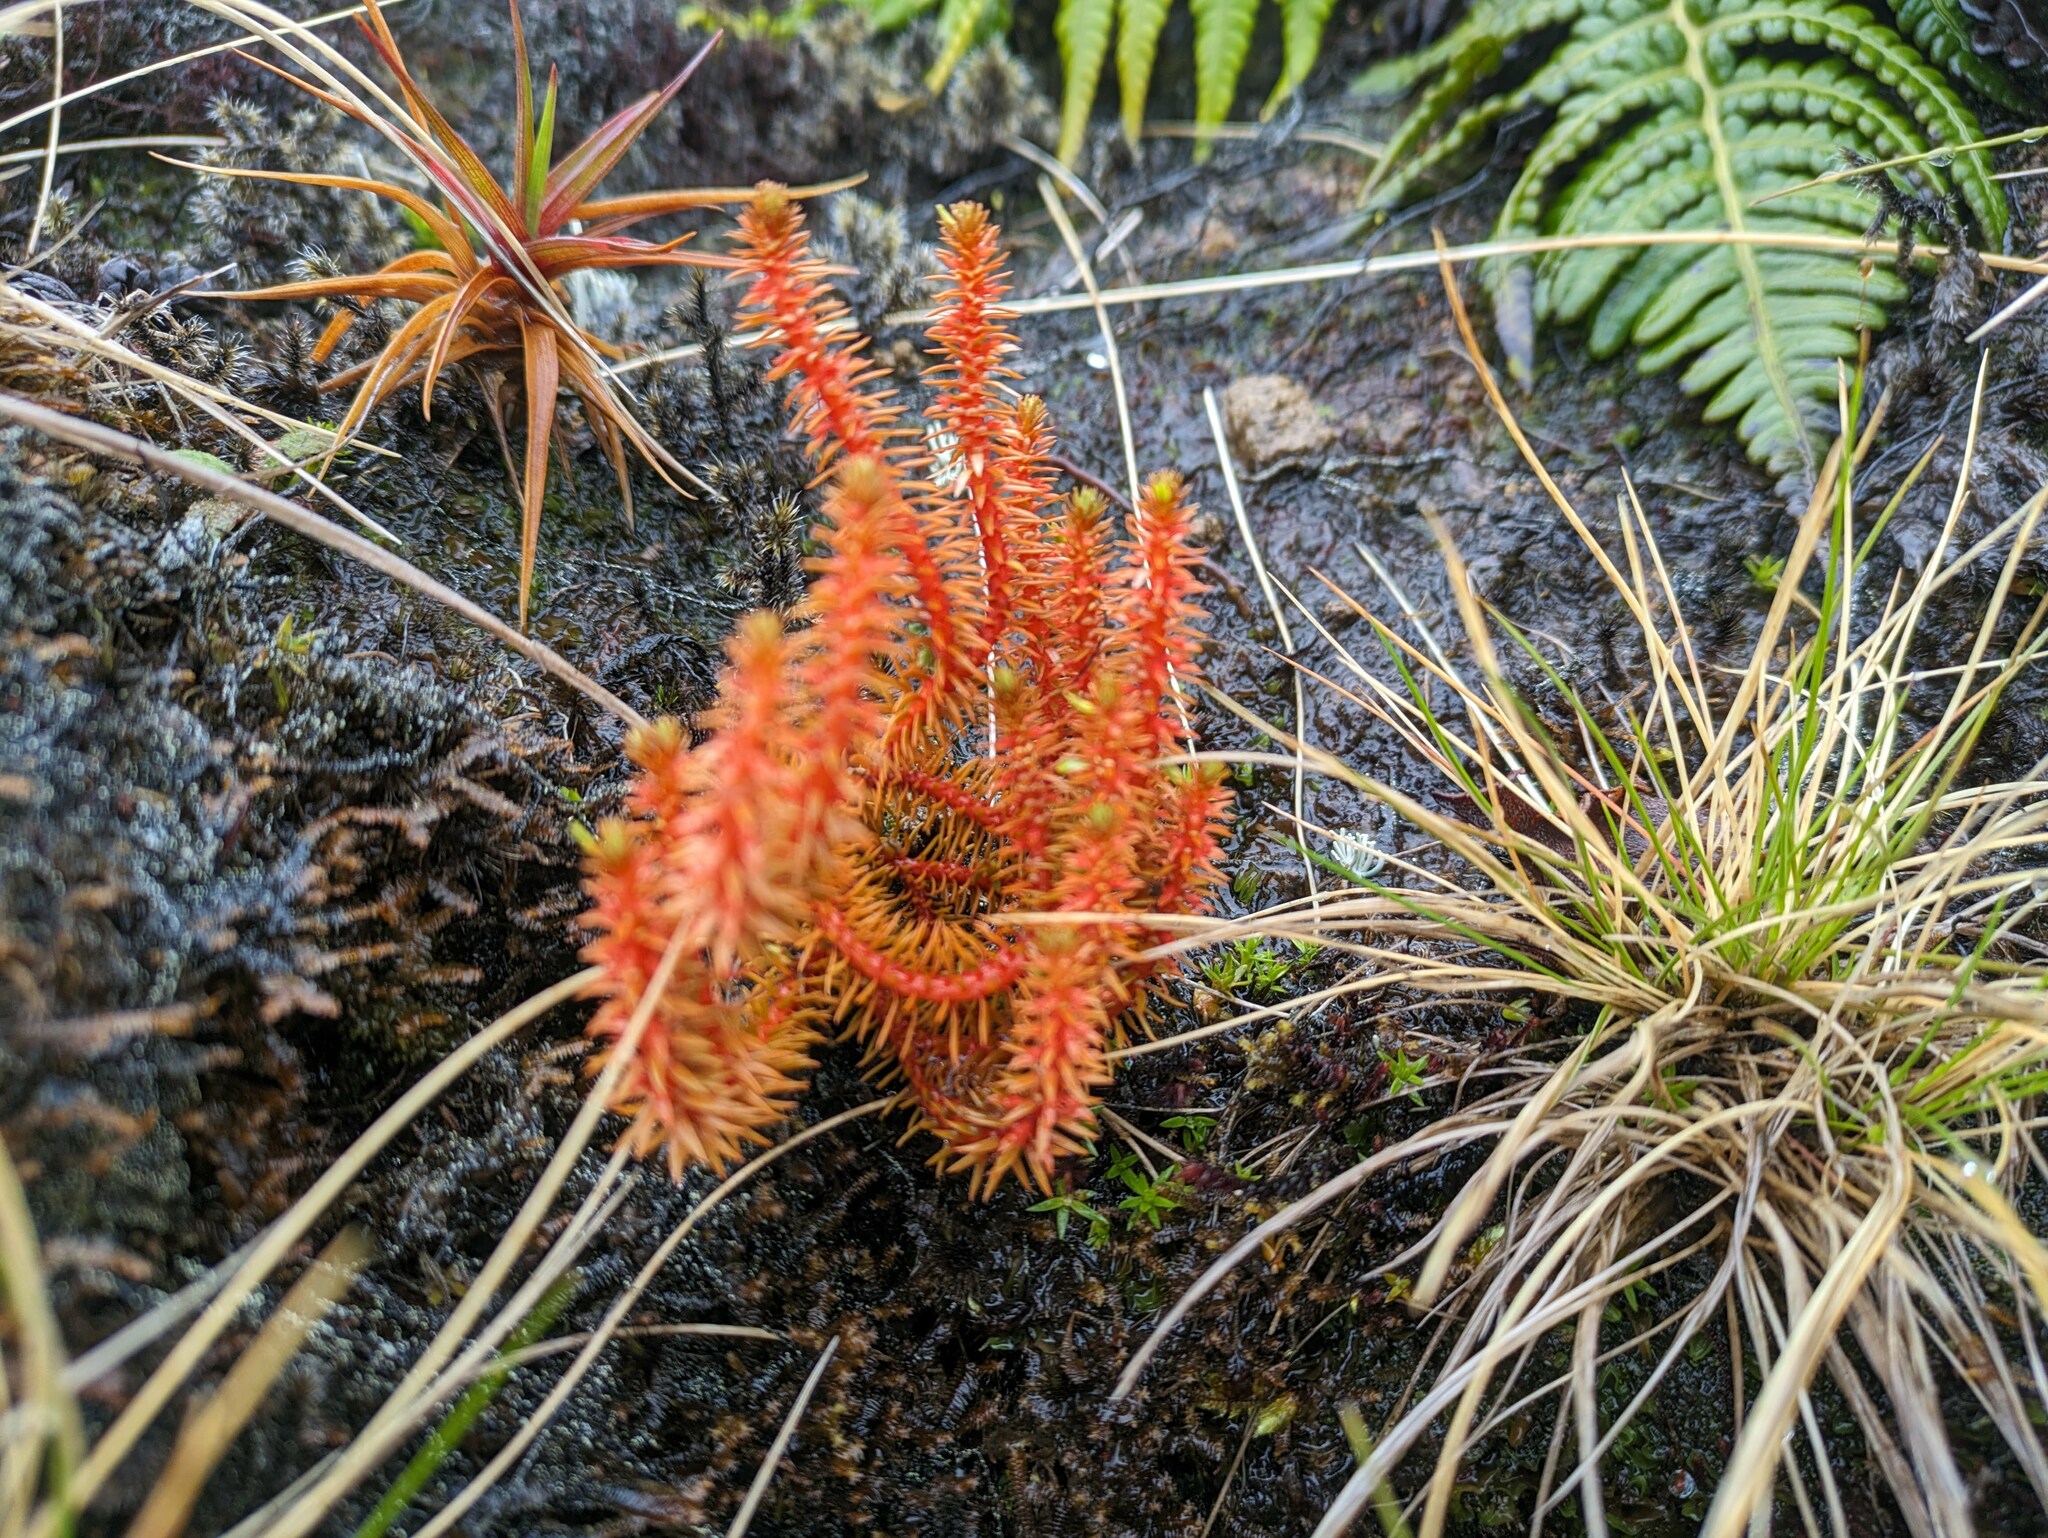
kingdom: Plantae
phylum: Tracheophyta
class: Lycopodiopsida
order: Lycopodiales
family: Lycopodiaceae
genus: Huperzia
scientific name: Huperzia erubescens
